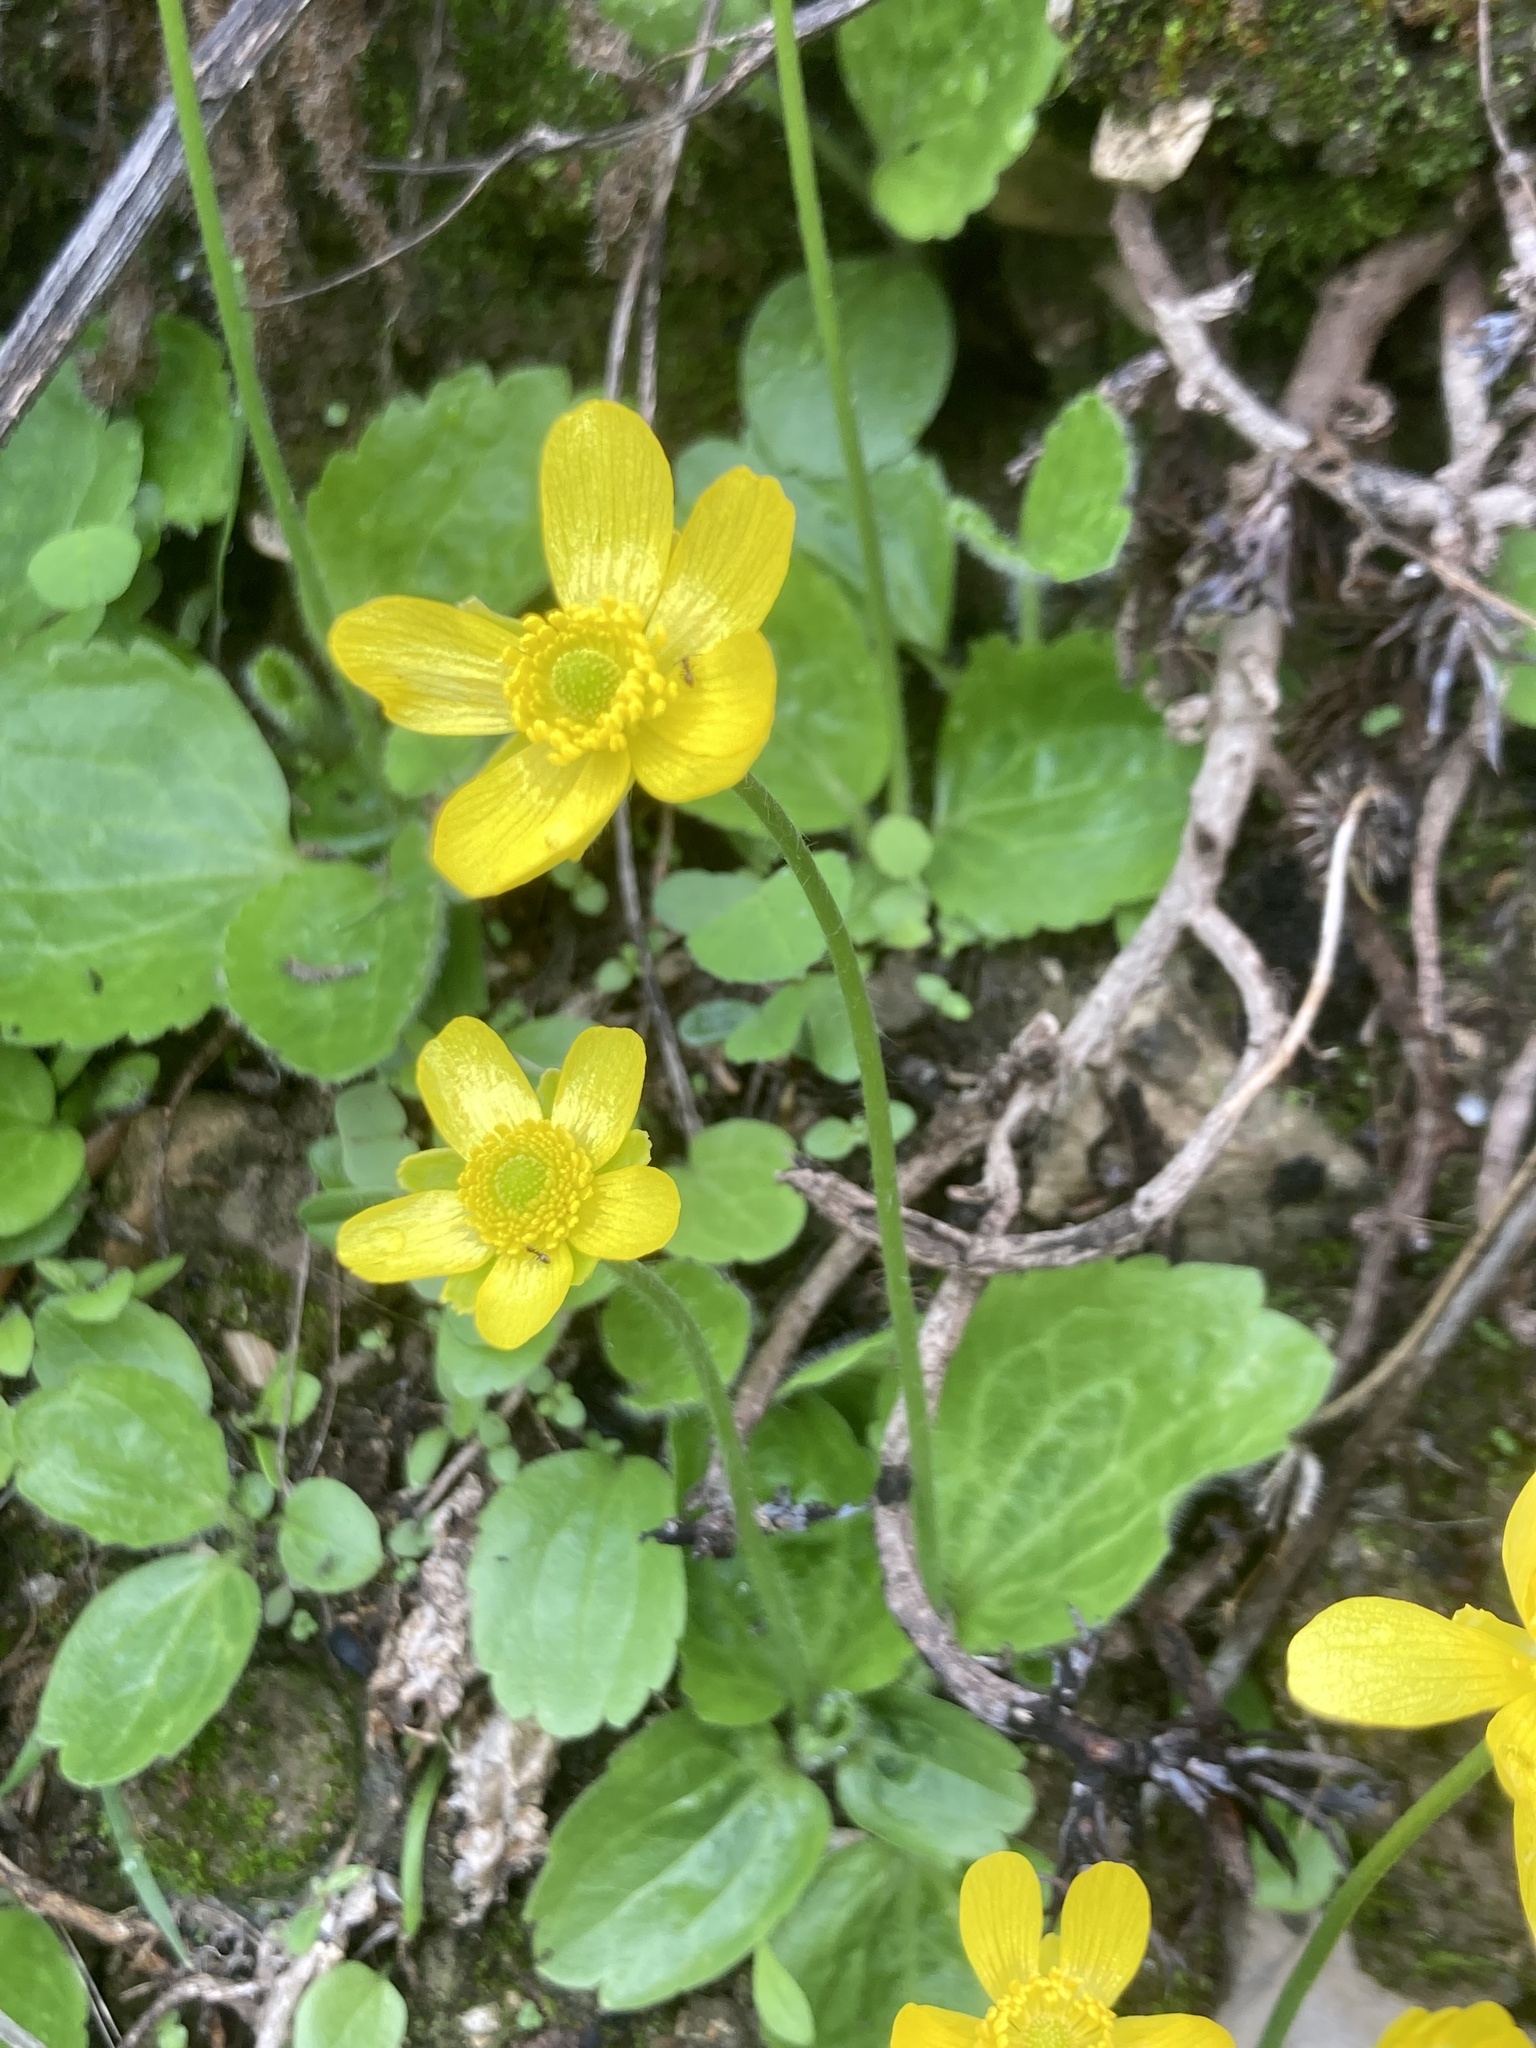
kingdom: Plantae
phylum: Tracheophyta
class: Magnoliopsida
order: Ranunculales
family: Ranunculaceae
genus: Ranunculus
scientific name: Ranunculus bullatus
